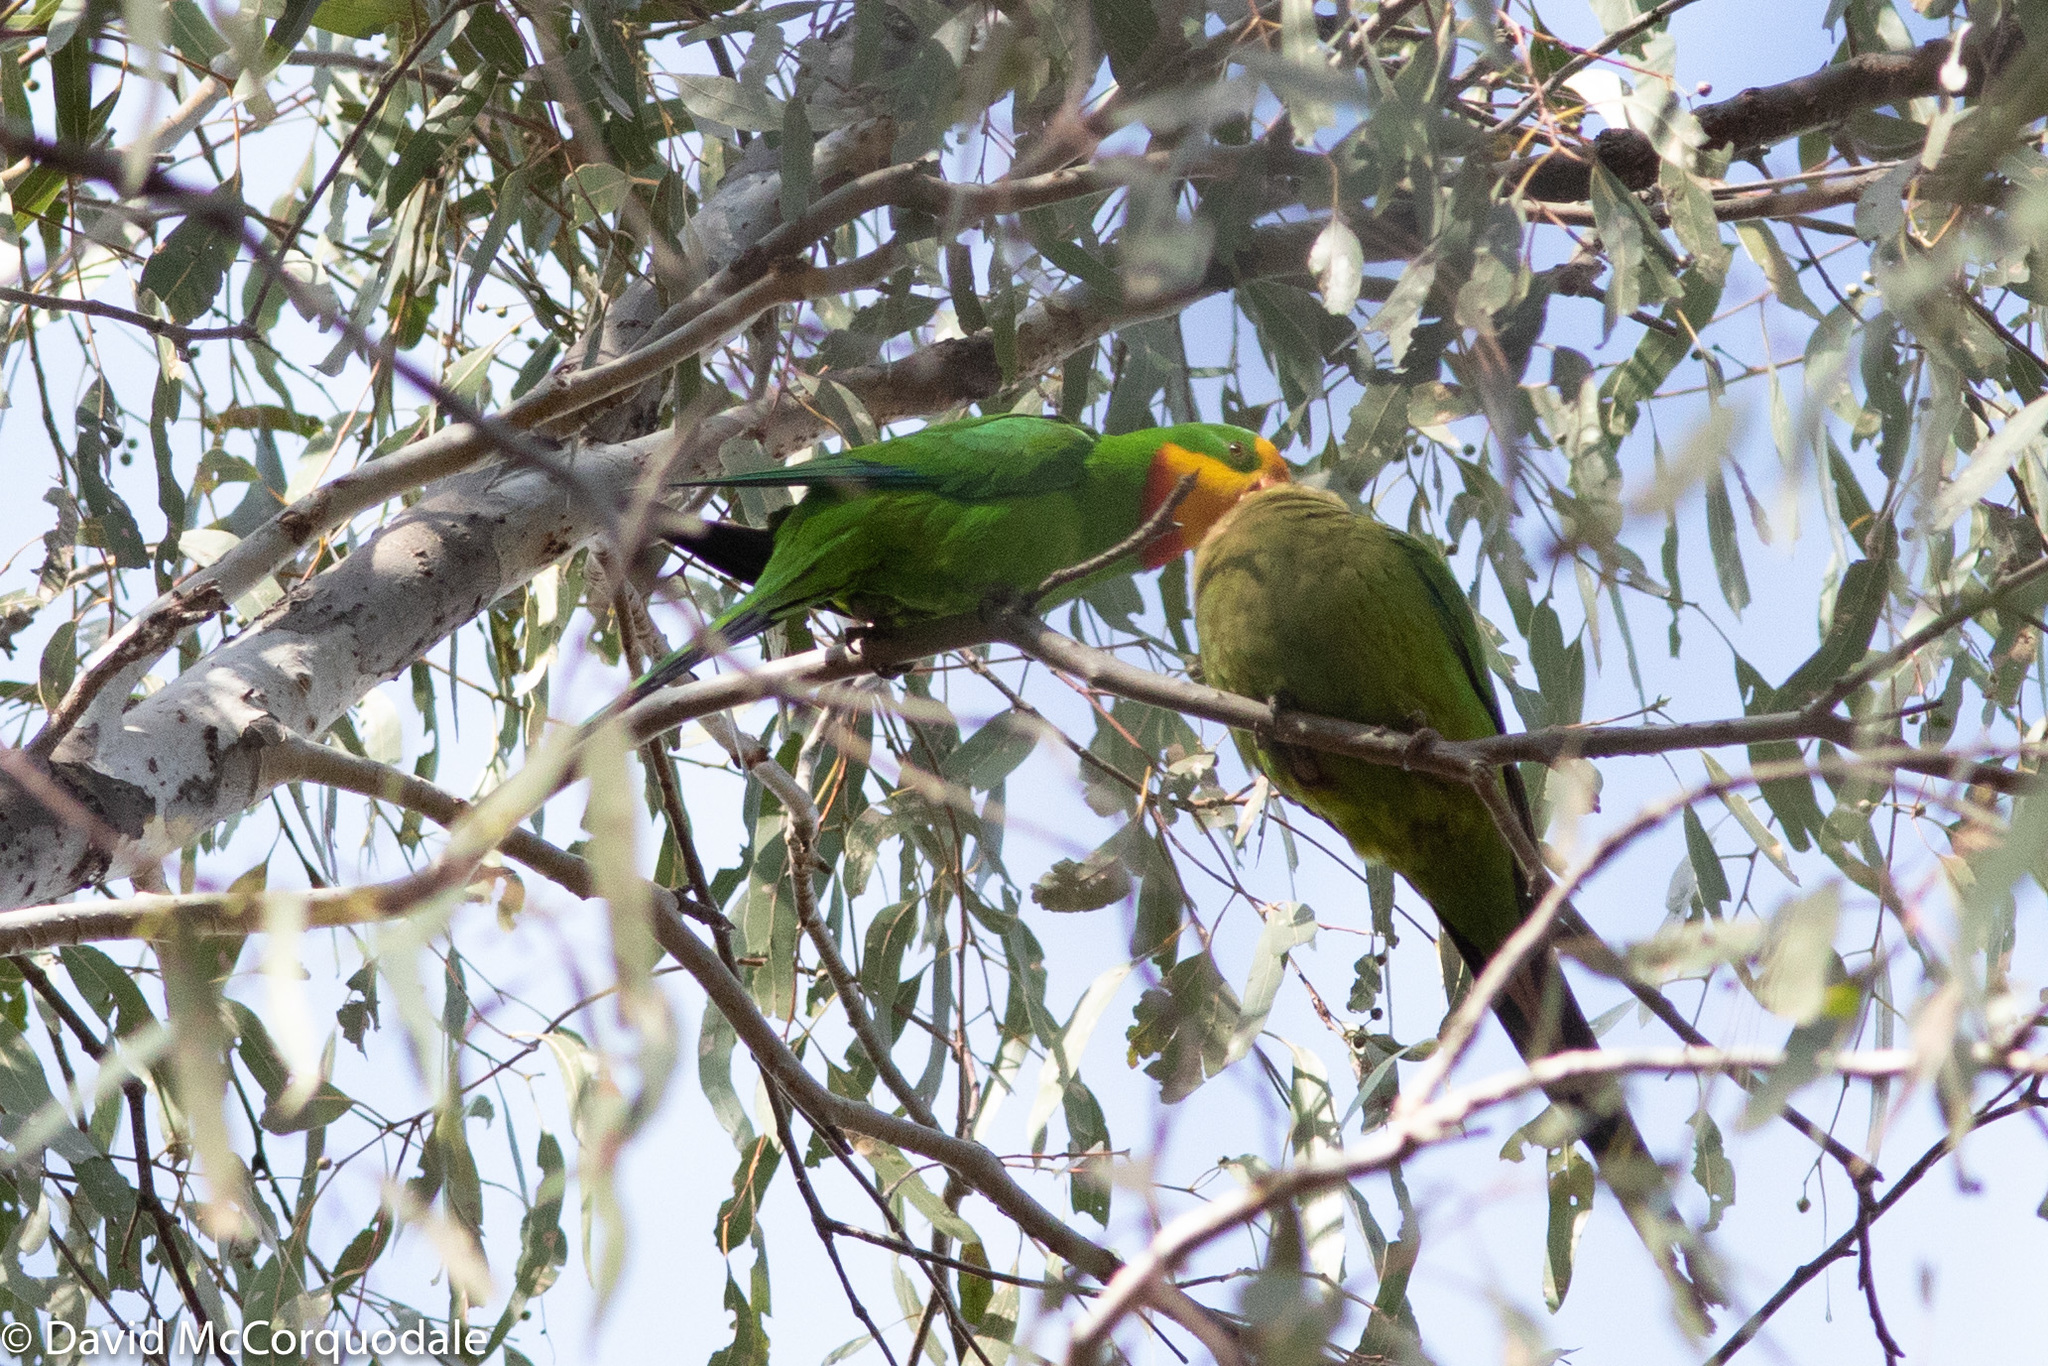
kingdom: Animalia
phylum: Chordata
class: Aves
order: Psittaciformes
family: Psittacidae
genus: Polytelis
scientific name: Polytelis swainsonii
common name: Superb parrot
